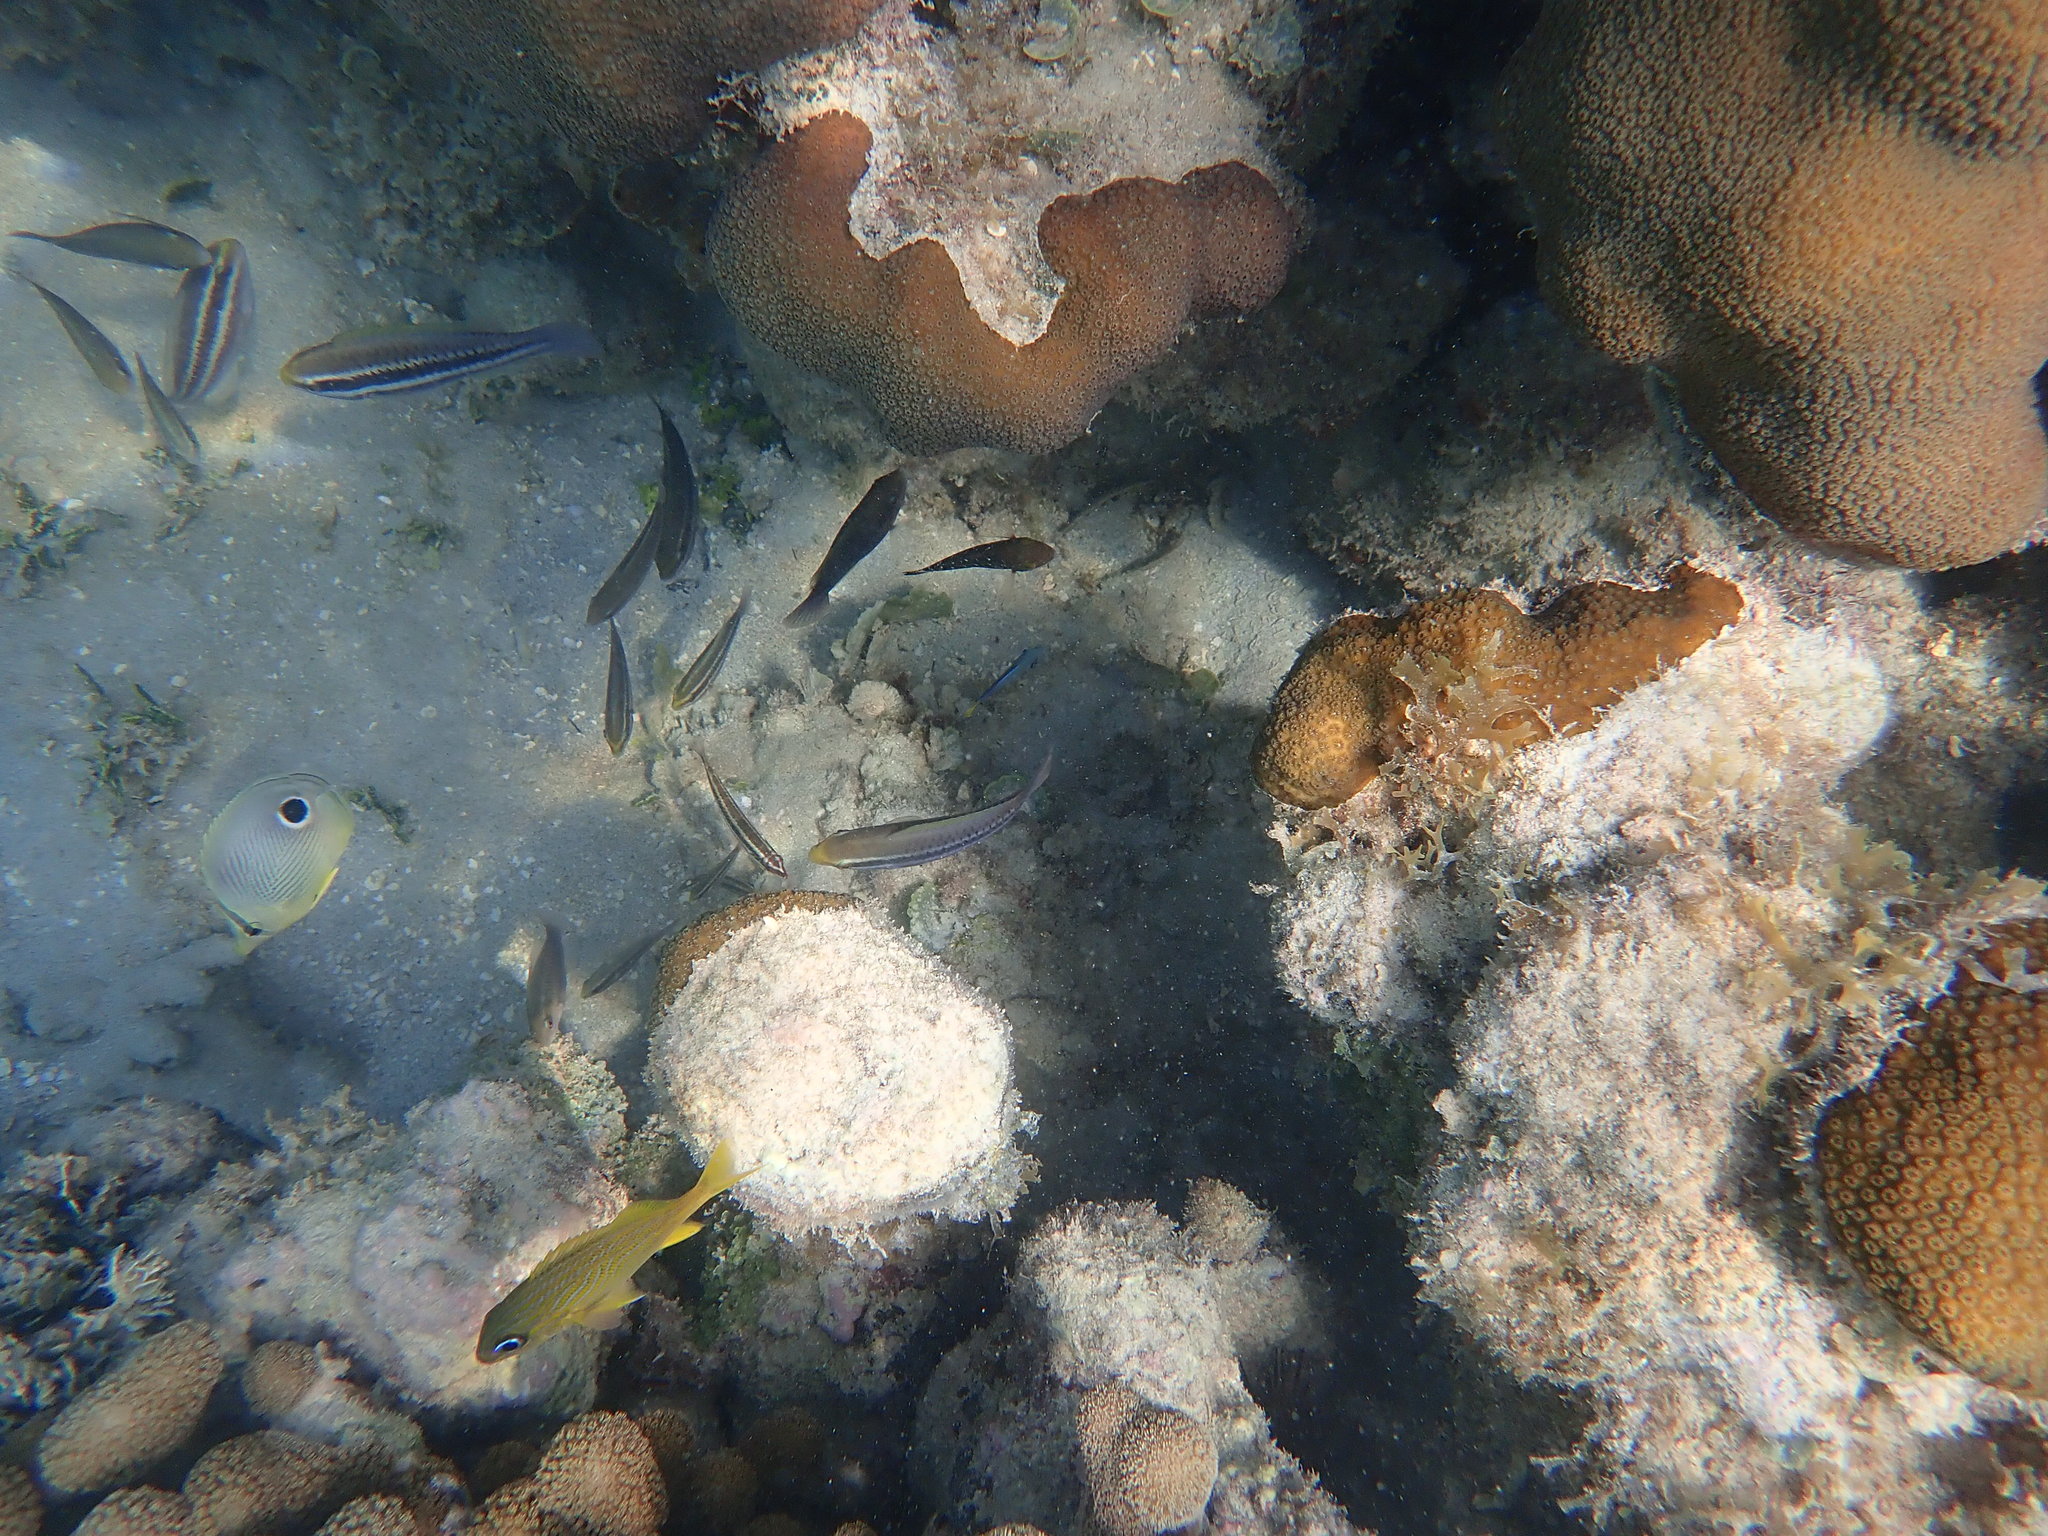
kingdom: Animalia
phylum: Chordata
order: Perciformes
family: Scaridae
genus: Scarus
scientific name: Scarus iseri
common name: Striped parrotfish
